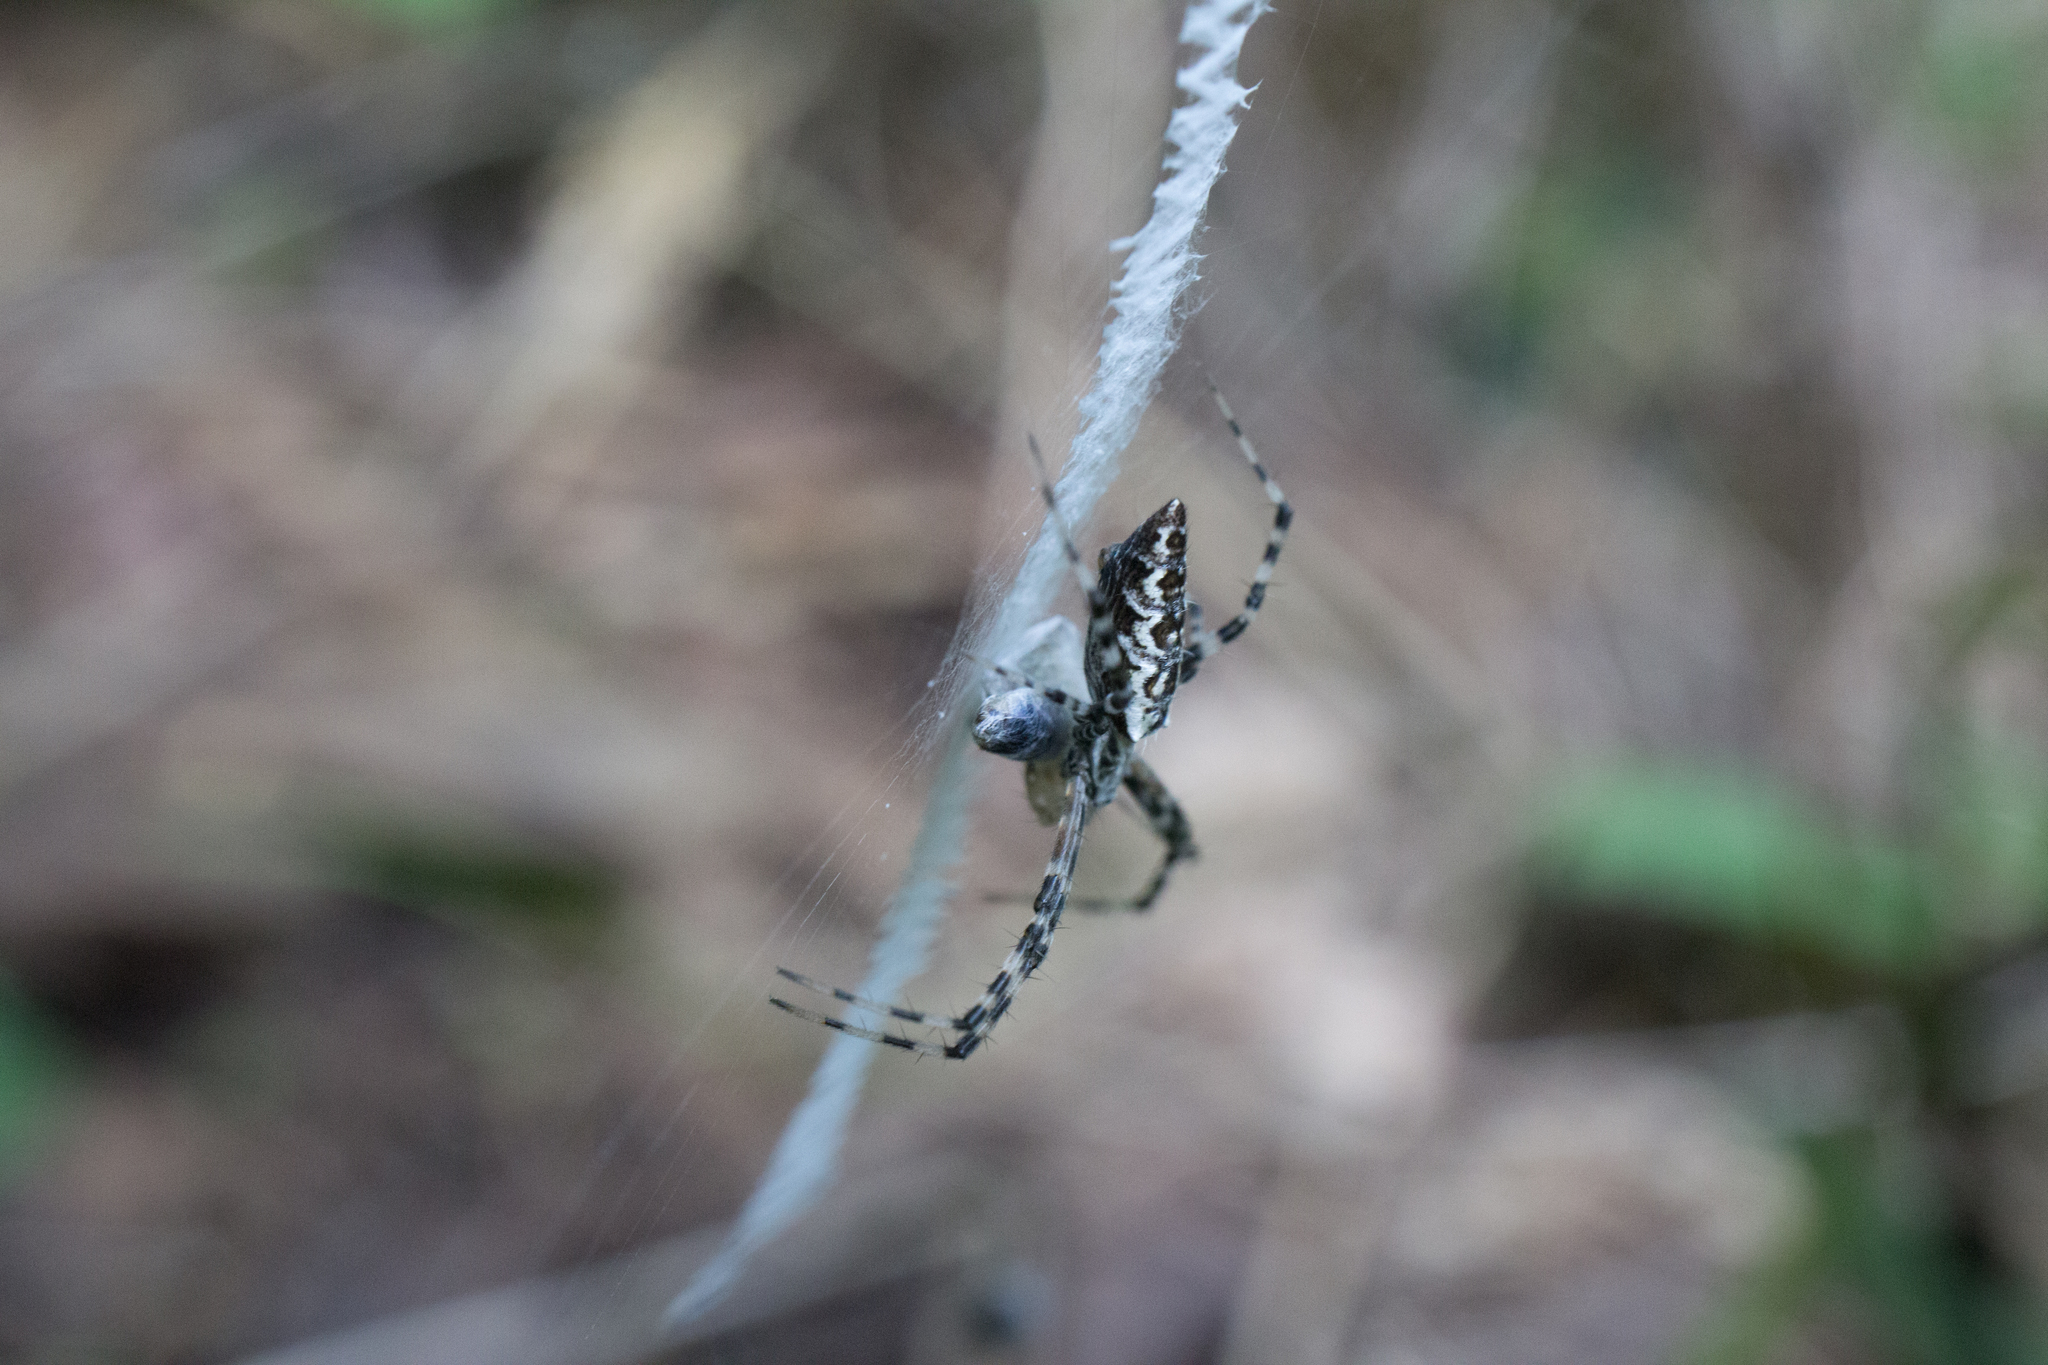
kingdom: Animalia
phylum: Arthropoda
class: Arachnida
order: Araneae
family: Araneidae
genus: Argiope
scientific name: Argiope aurantia
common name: Orb weavers
